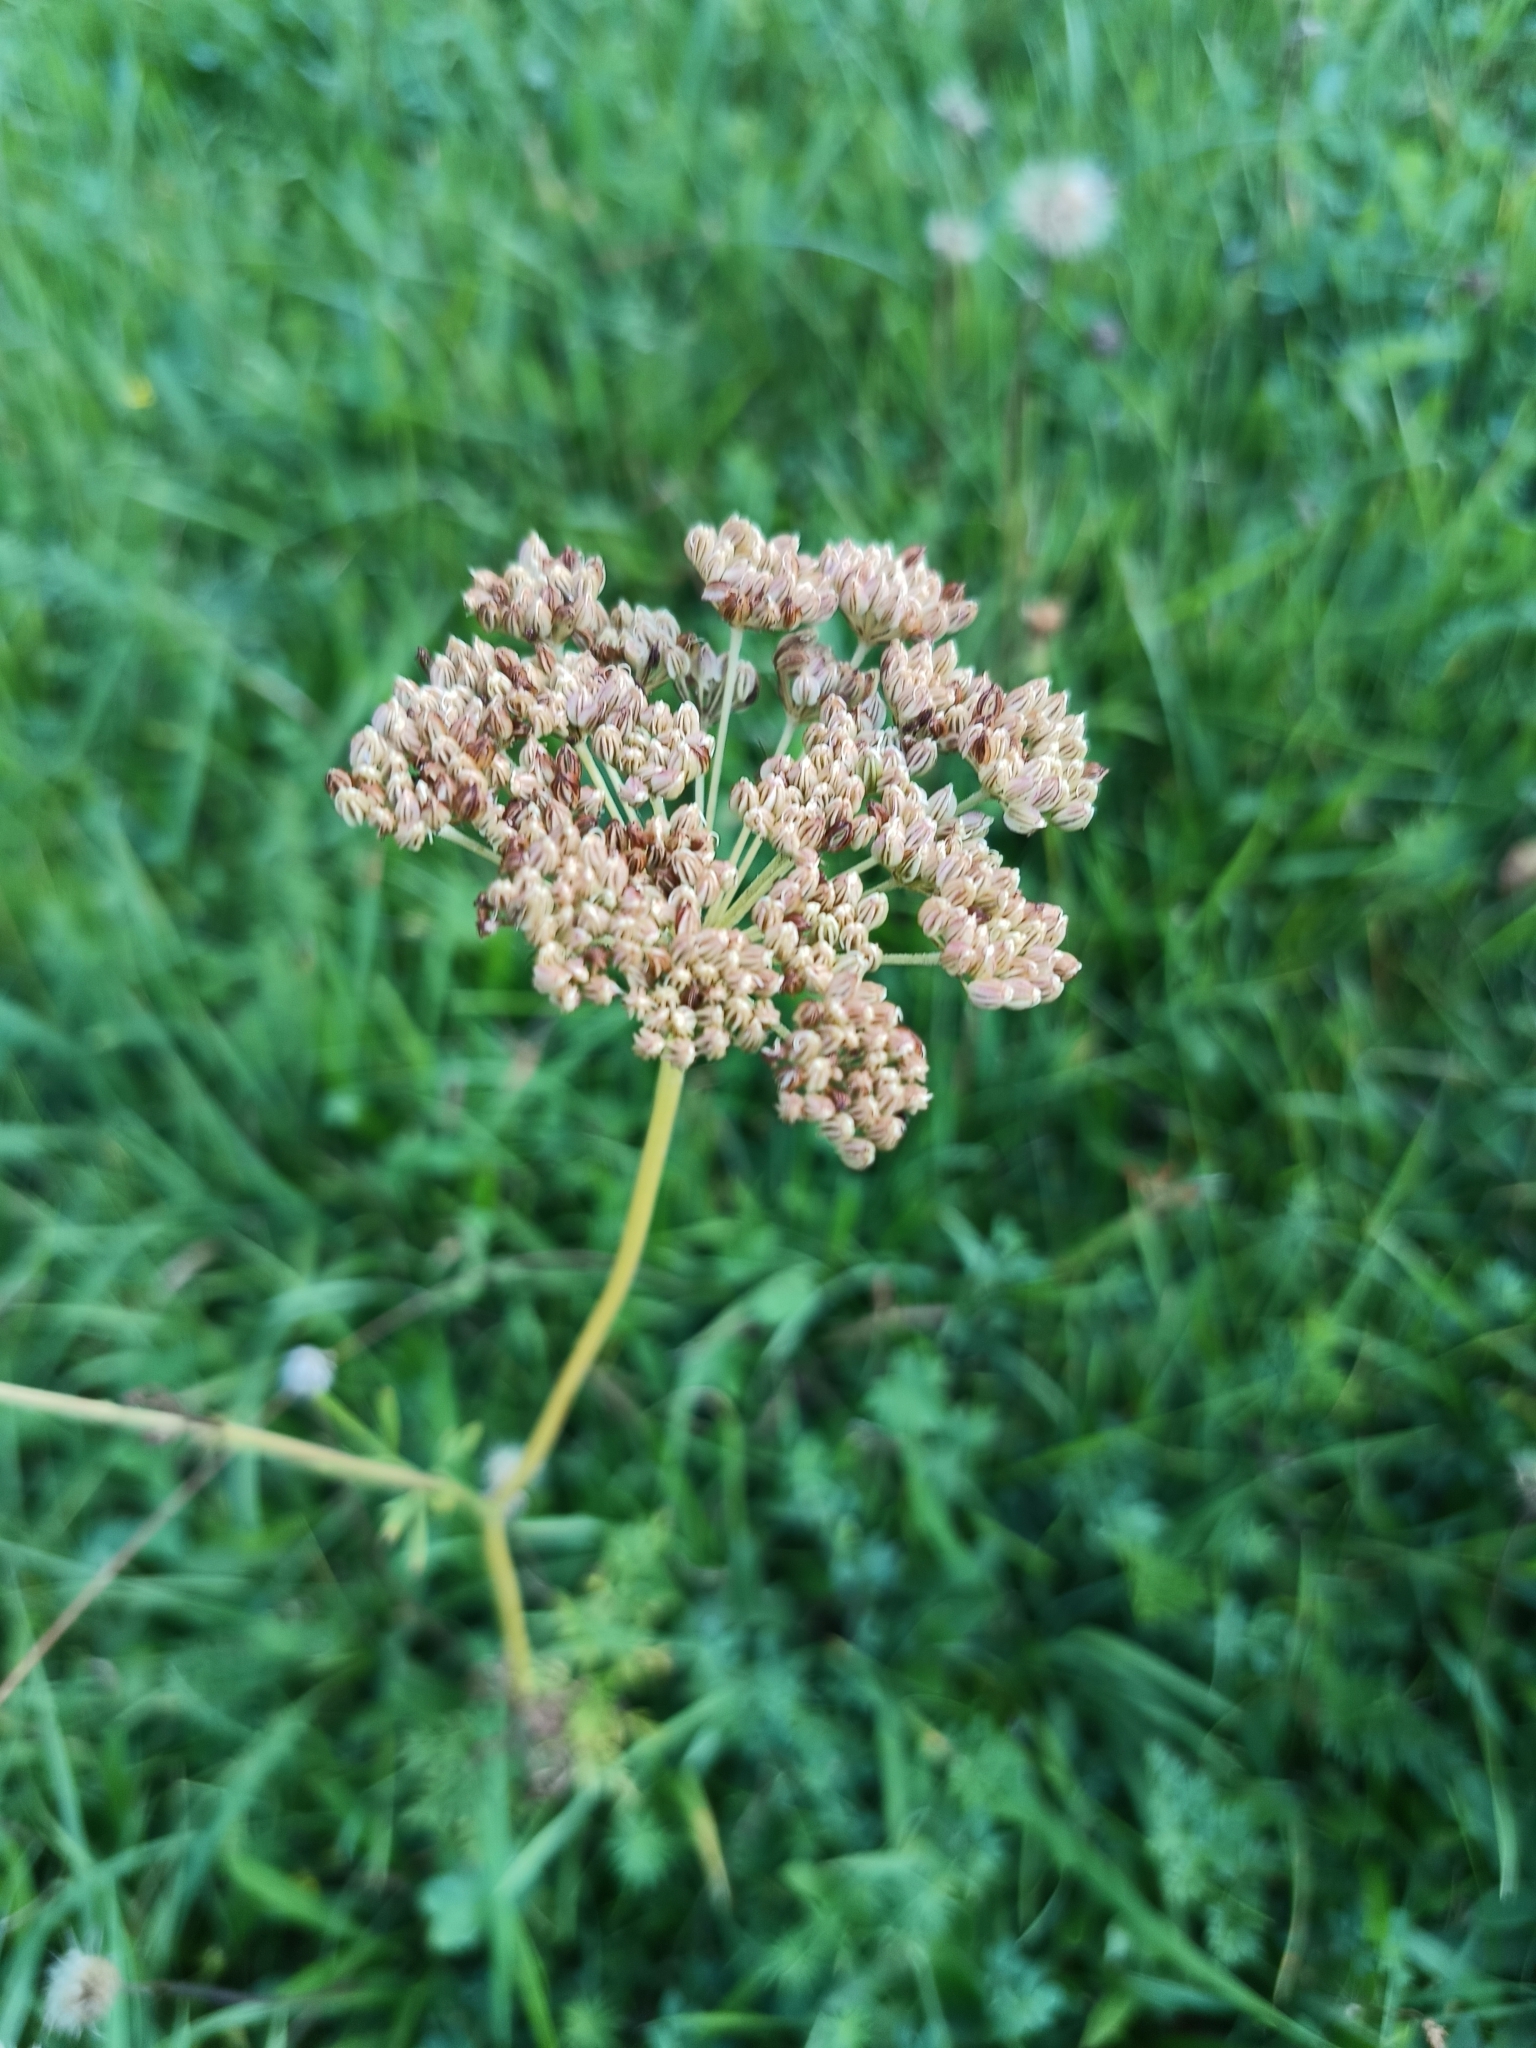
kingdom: Plantae
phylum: Tracheophyta
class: Magnoliopsida
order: Apiales
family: Apiaceae
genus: Selinum
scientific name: Selinum carvifolia
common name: Cambridge milk-parsley
